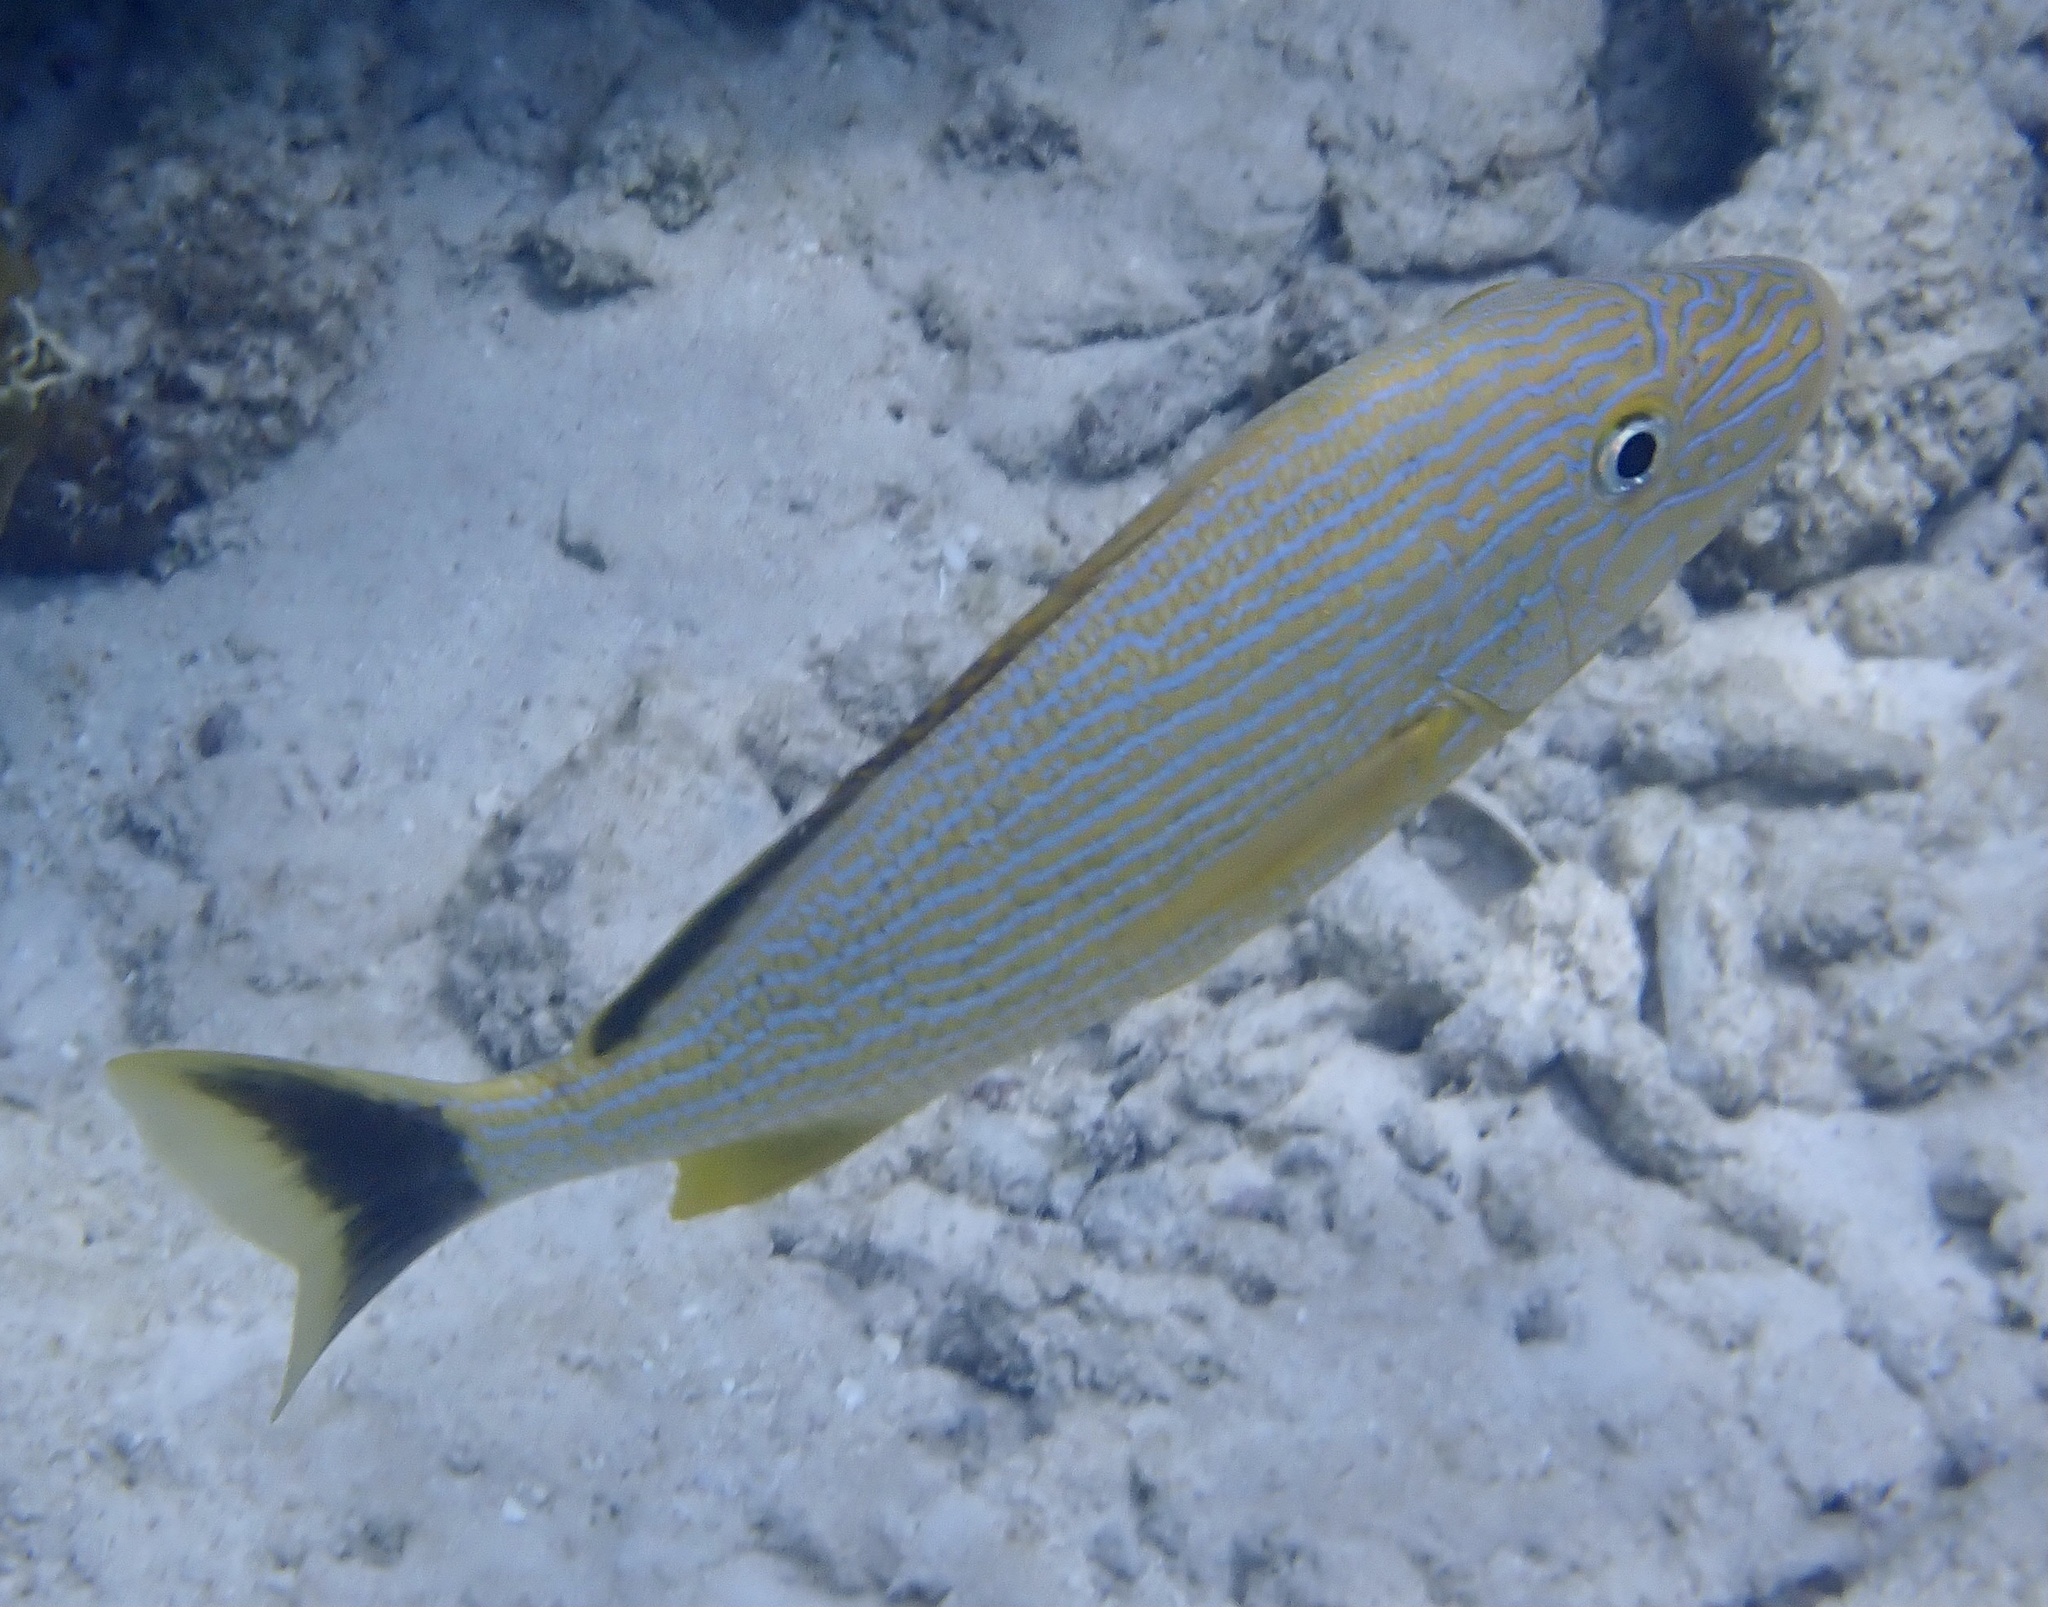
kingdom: Animalia
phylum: Chordata
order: Perciformes
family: Haemulidae
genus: Haemulon
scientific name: Haemulon sciurus
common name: Bluestriped grunt
